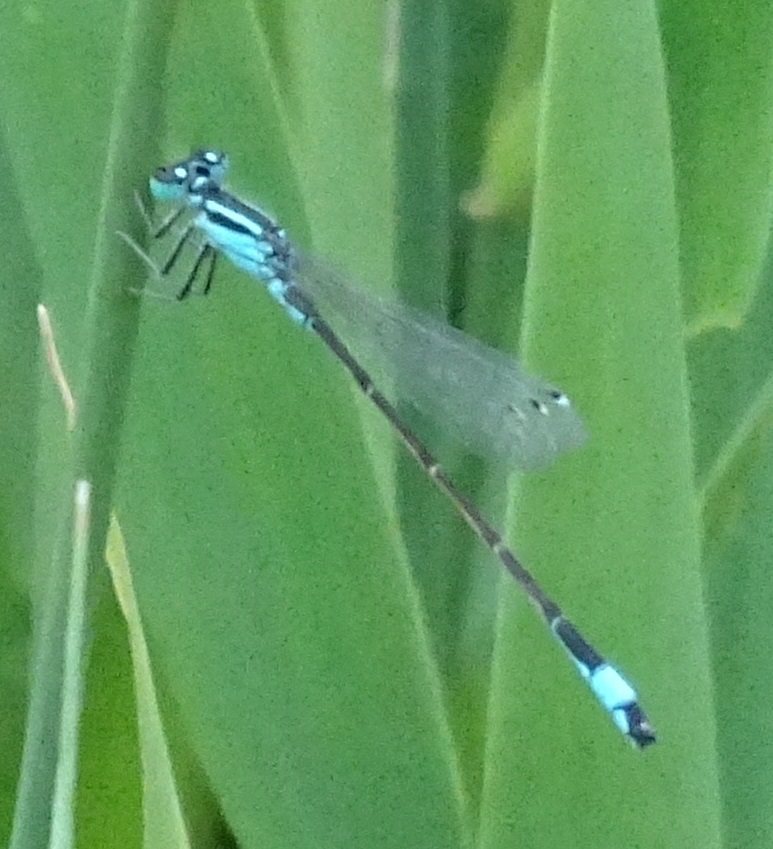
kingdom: Animalia
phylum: Arthropoda
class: Insecta
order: Odonata
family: Coenagrionidae
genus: Ischnura
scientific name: Ischnura elegans
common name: Blue-tailed damselfly
